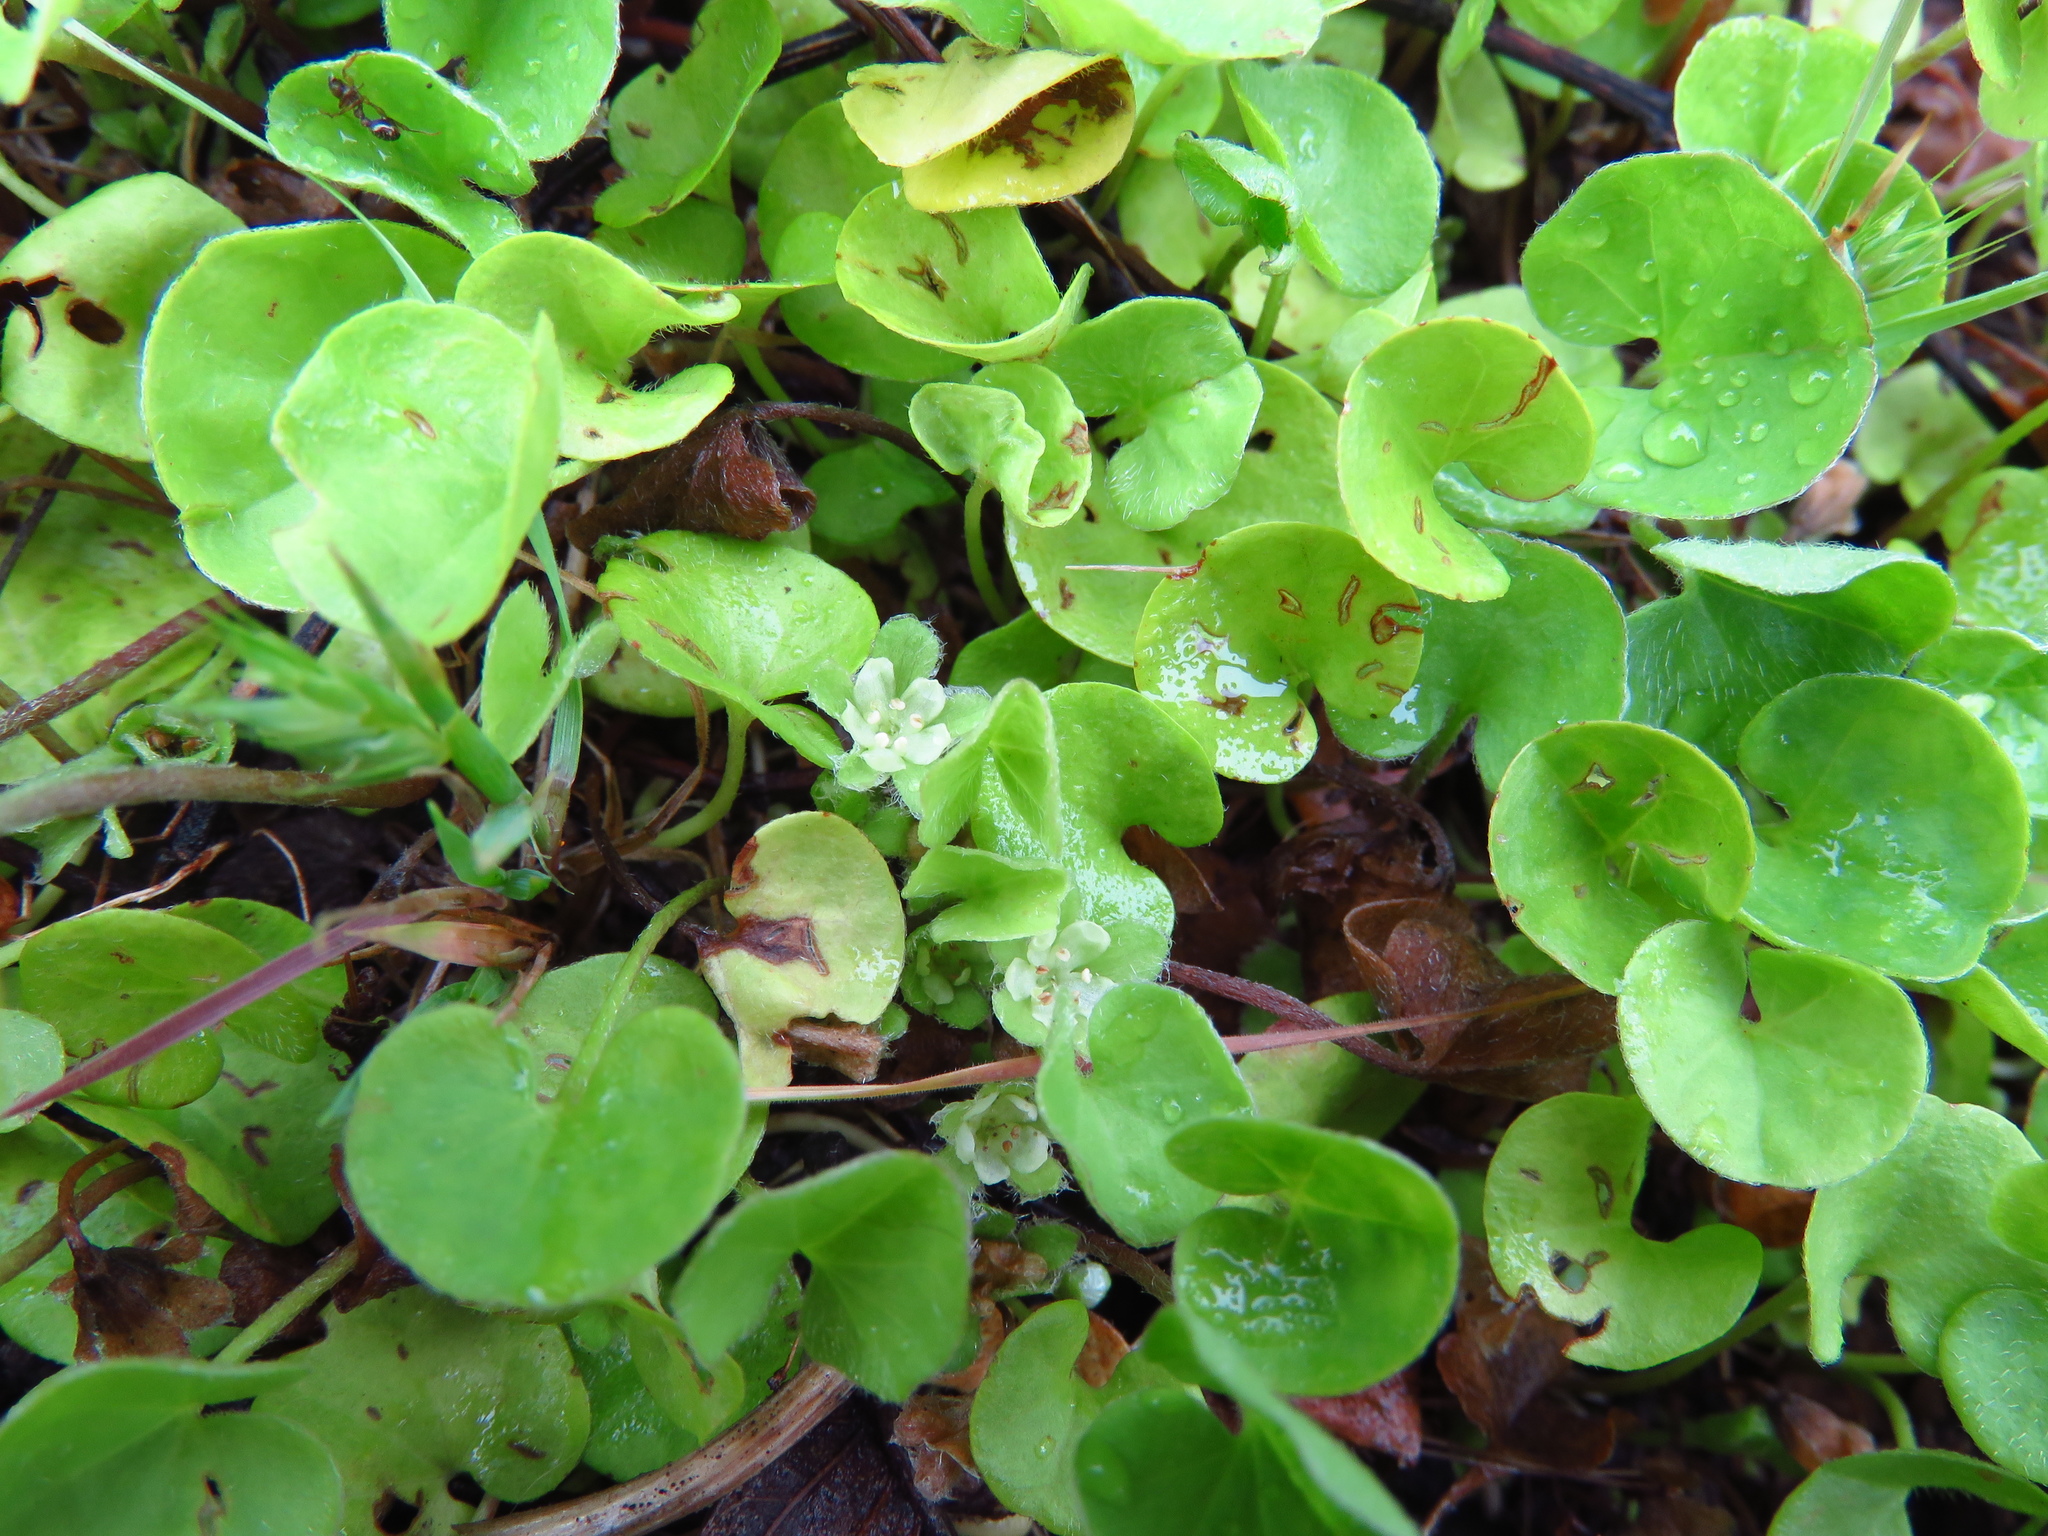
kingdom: Plantae
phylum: Tracheophyta
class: Magnoliopsida
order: Solanales
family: Convolvulaceae
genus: Dichondra
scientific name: Dichondra carolinensis
